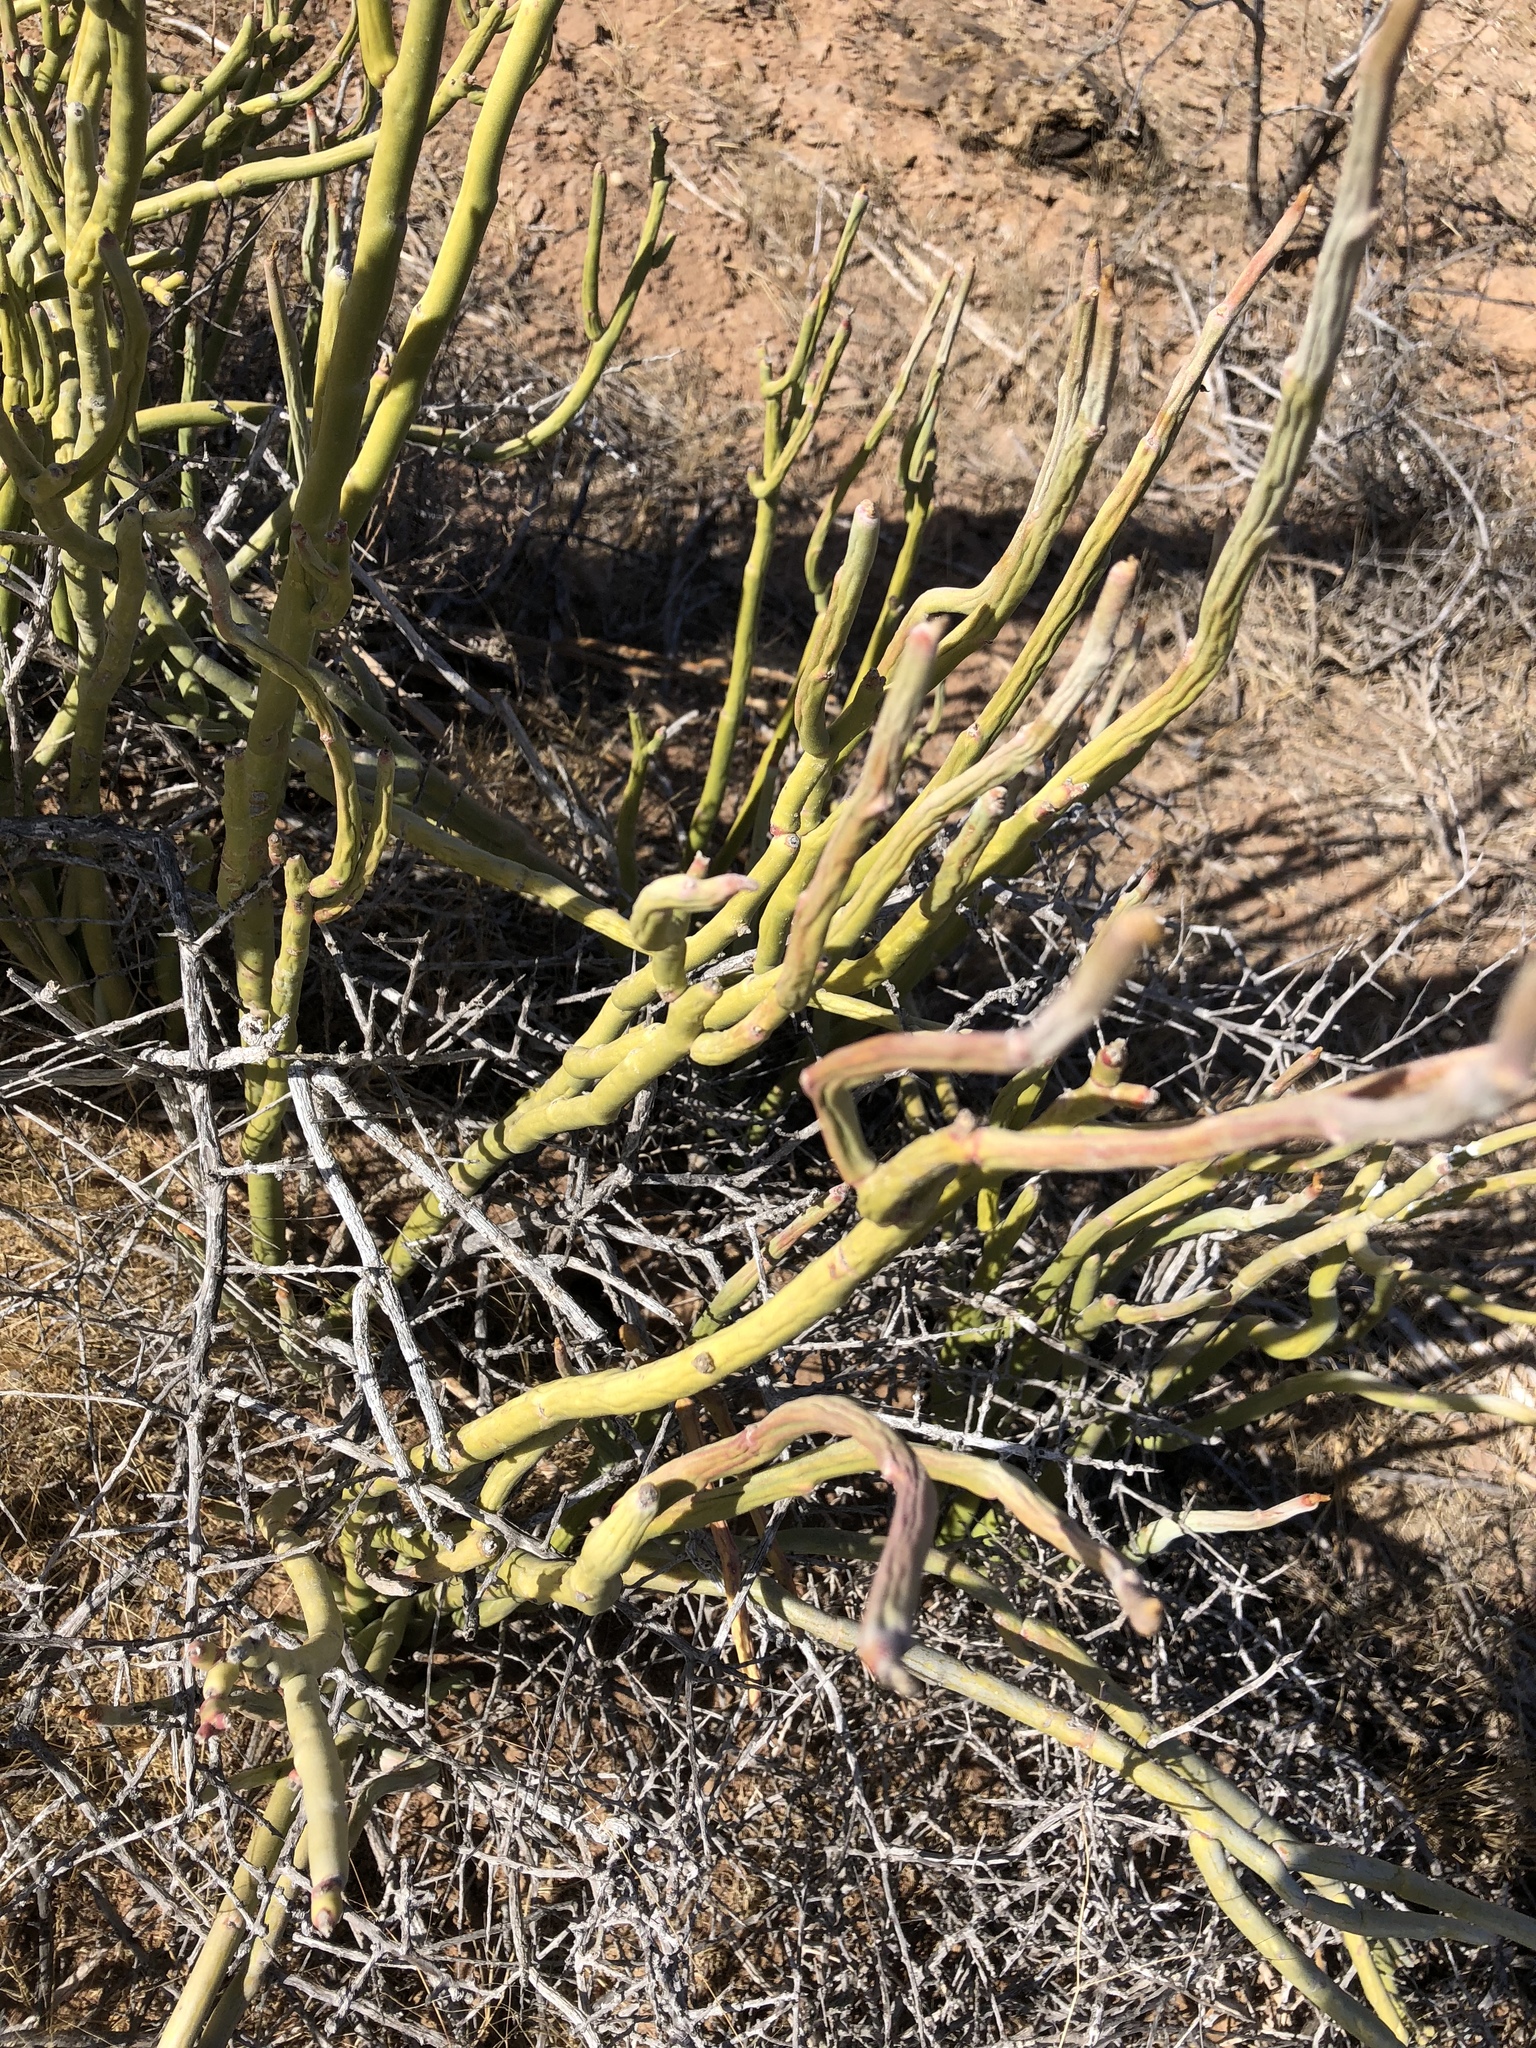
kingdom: Plantae
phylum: Tracheophyta
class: Magnoliopsida
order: Malpighiales
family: Euphorbiaceae
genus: Euphorbia
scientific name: Euphorbia lomelii
